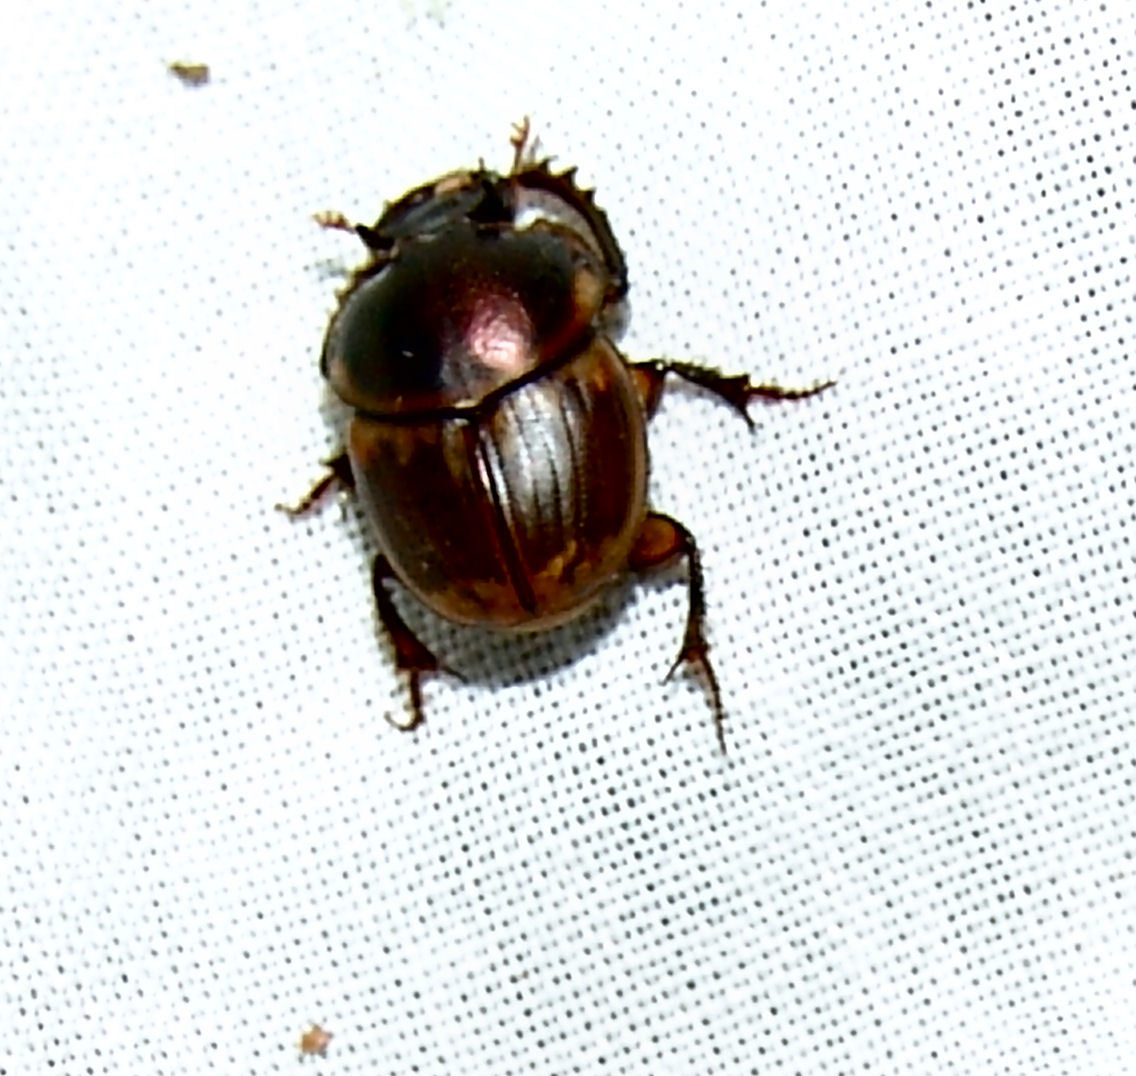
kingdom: Animalia
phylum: Arthropoda
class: Insecta
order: Coleoptera
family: Scarabaeidae
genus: Digitonthophagus
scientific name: Digitonthophagus gazella
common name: Brown dung beetle
